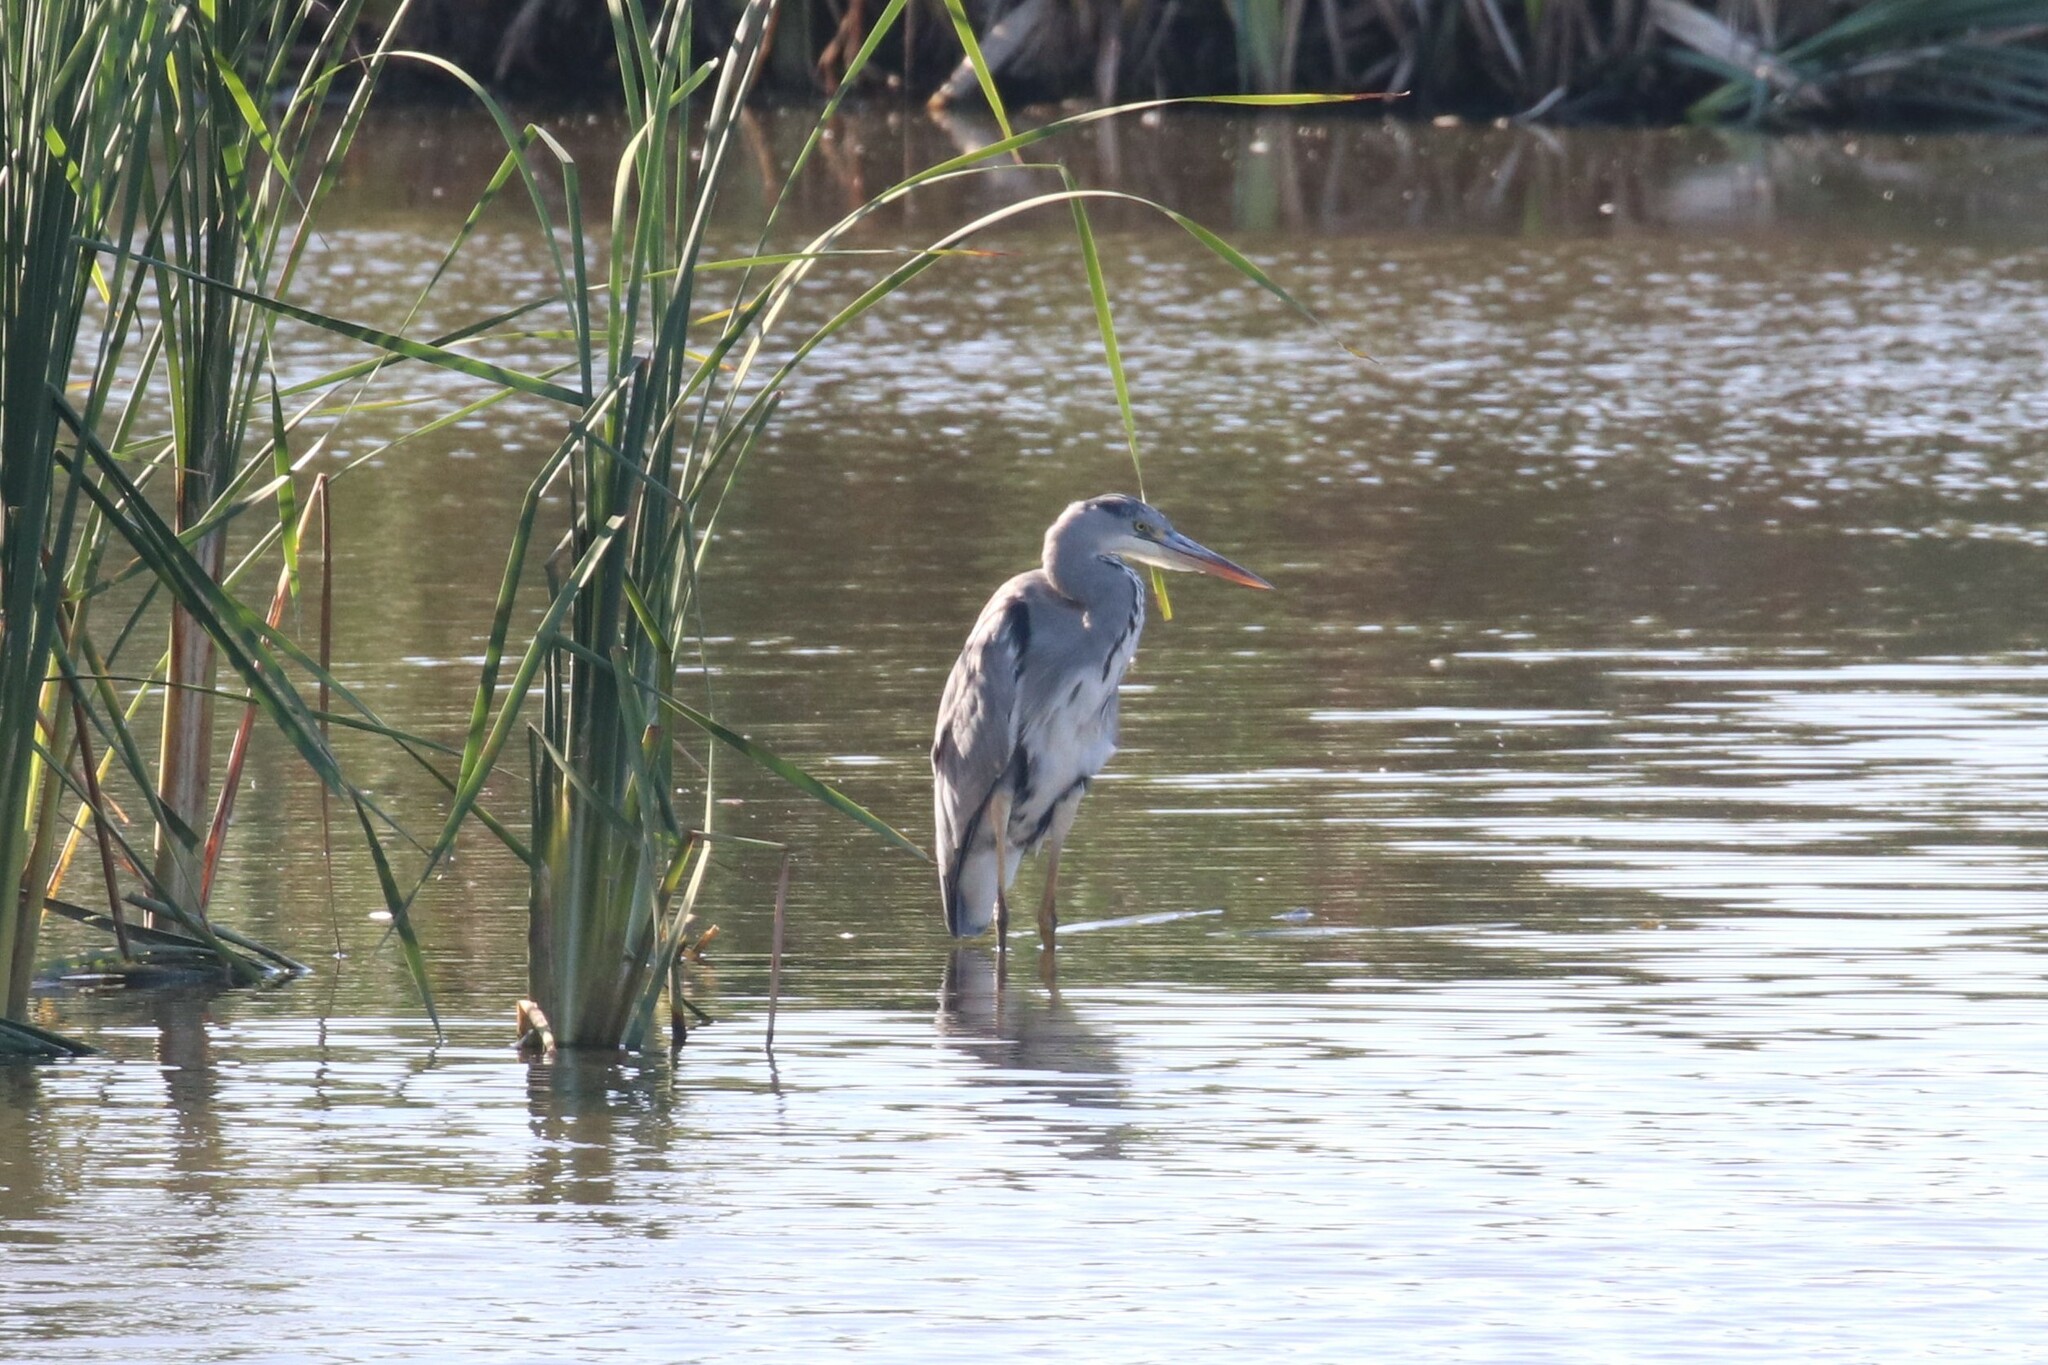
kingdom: Animalia
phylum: Chordata
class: Aves
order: Pelecaniformes
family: Ardeidae
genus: Ardea
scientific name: Ardea cinerea
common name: Grey heron
